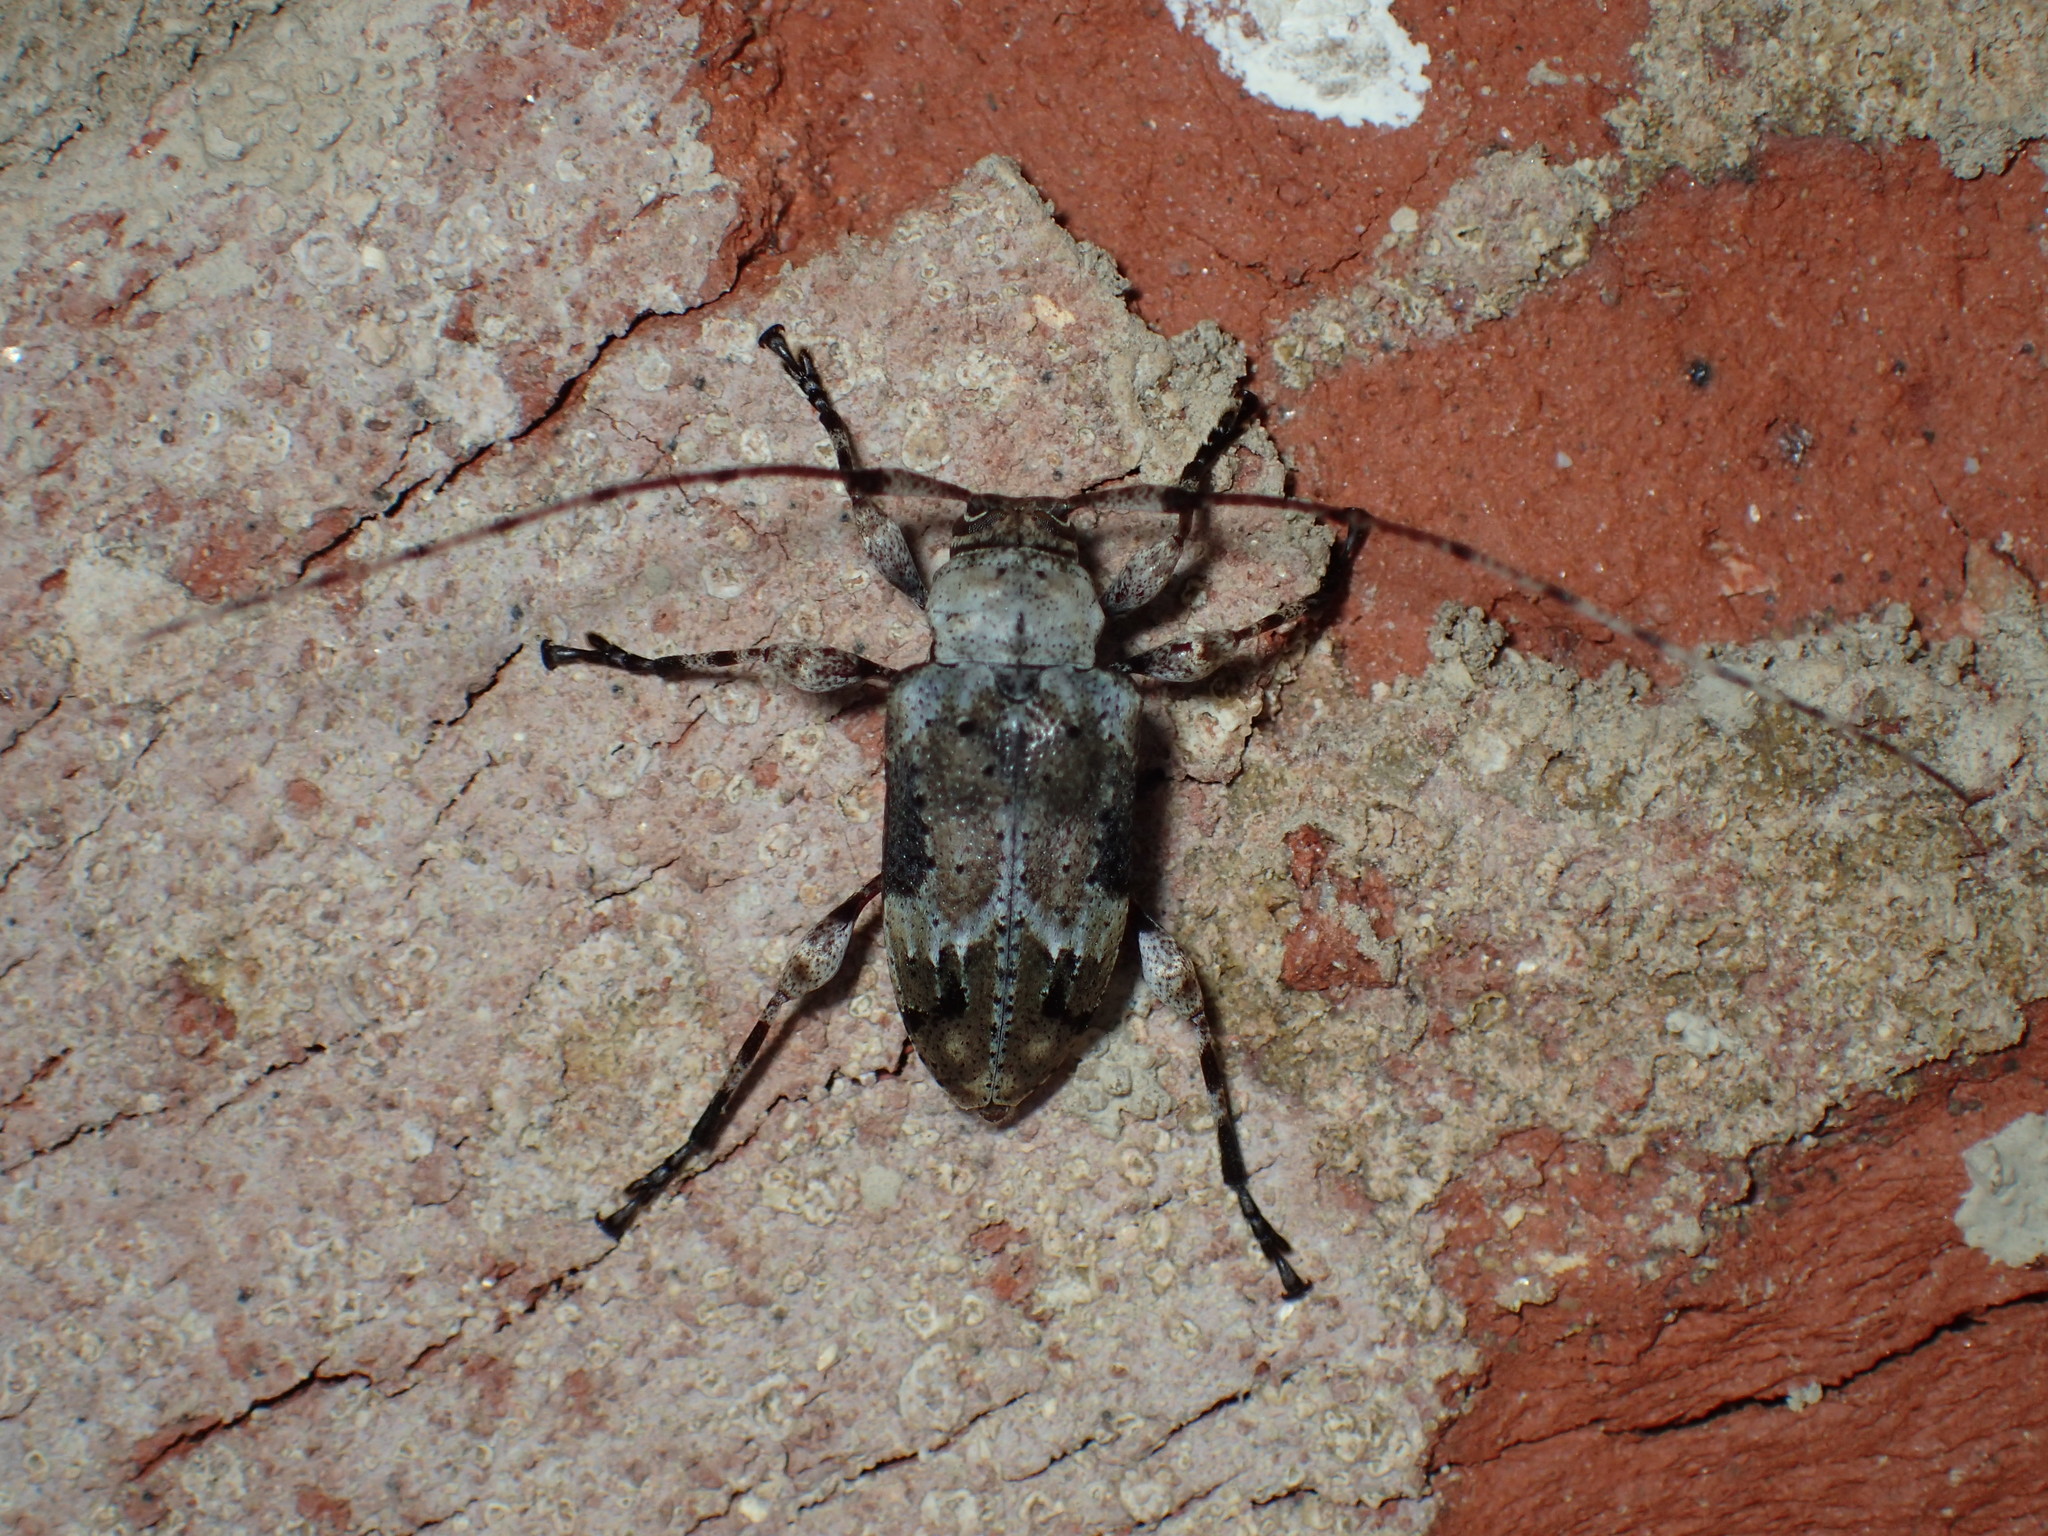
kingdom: Animalia
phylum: Arthropoda
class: Insecta
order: Coleoptera
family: Cerambycidae
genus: Leptostylopsis
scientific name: Leptostylopsis planidorsus
